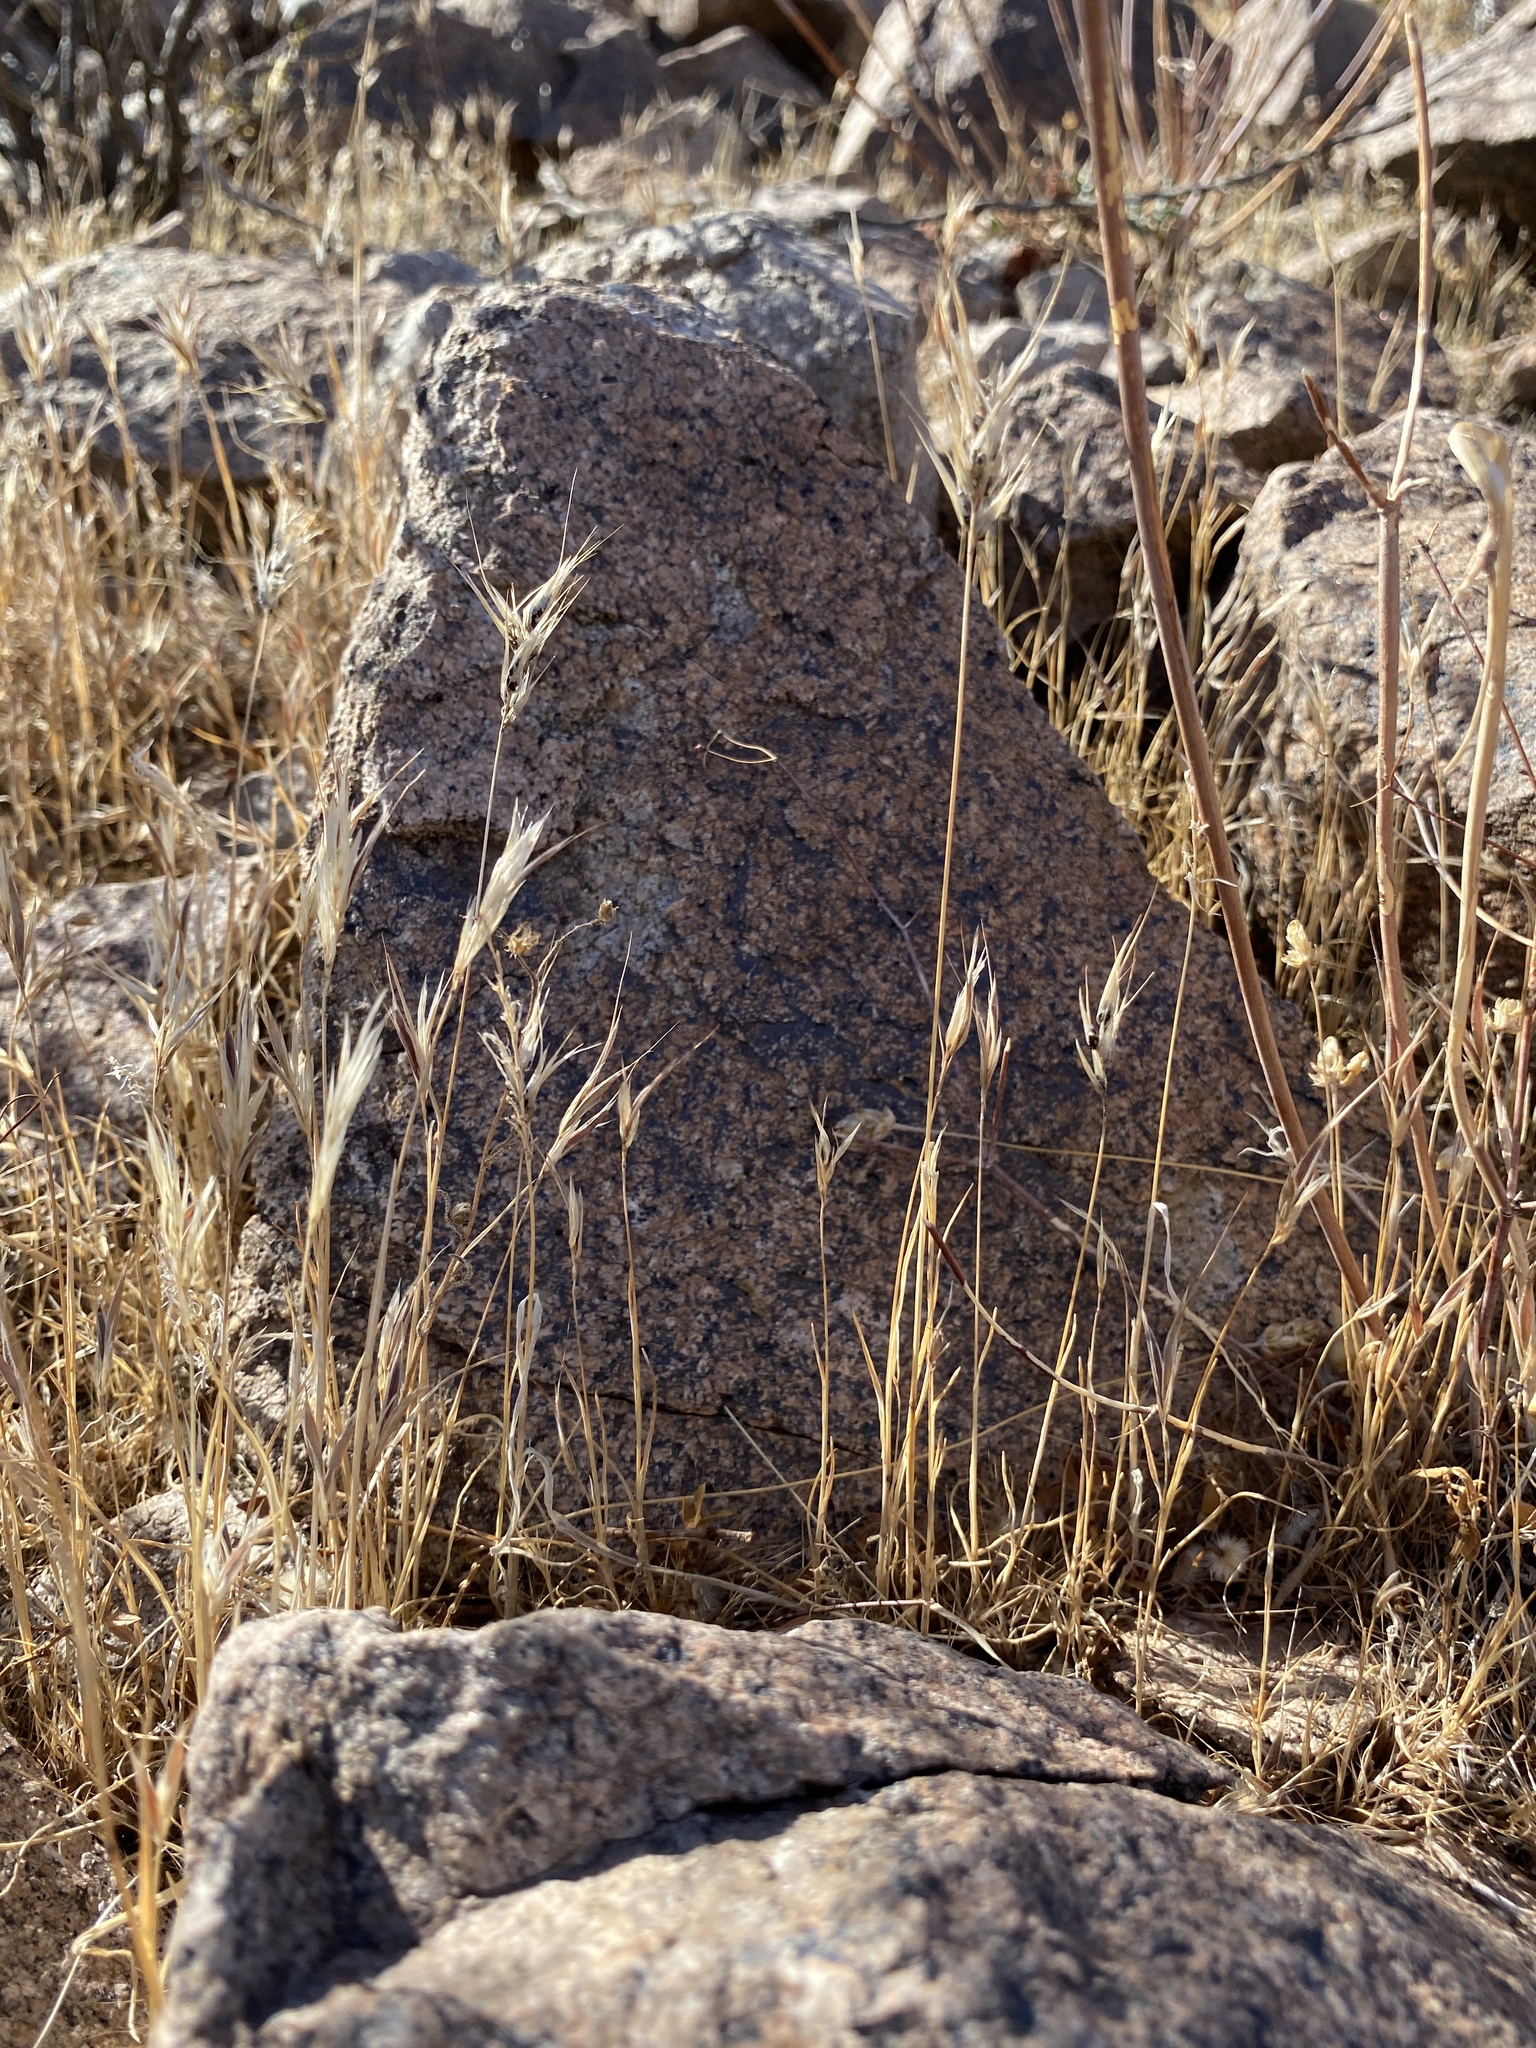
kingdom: Plantae
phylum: Tracheophyta
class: Liliopsida
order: Poales
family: Poaceae
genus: Bromus
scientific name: Bromus rubens
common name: Red brome
